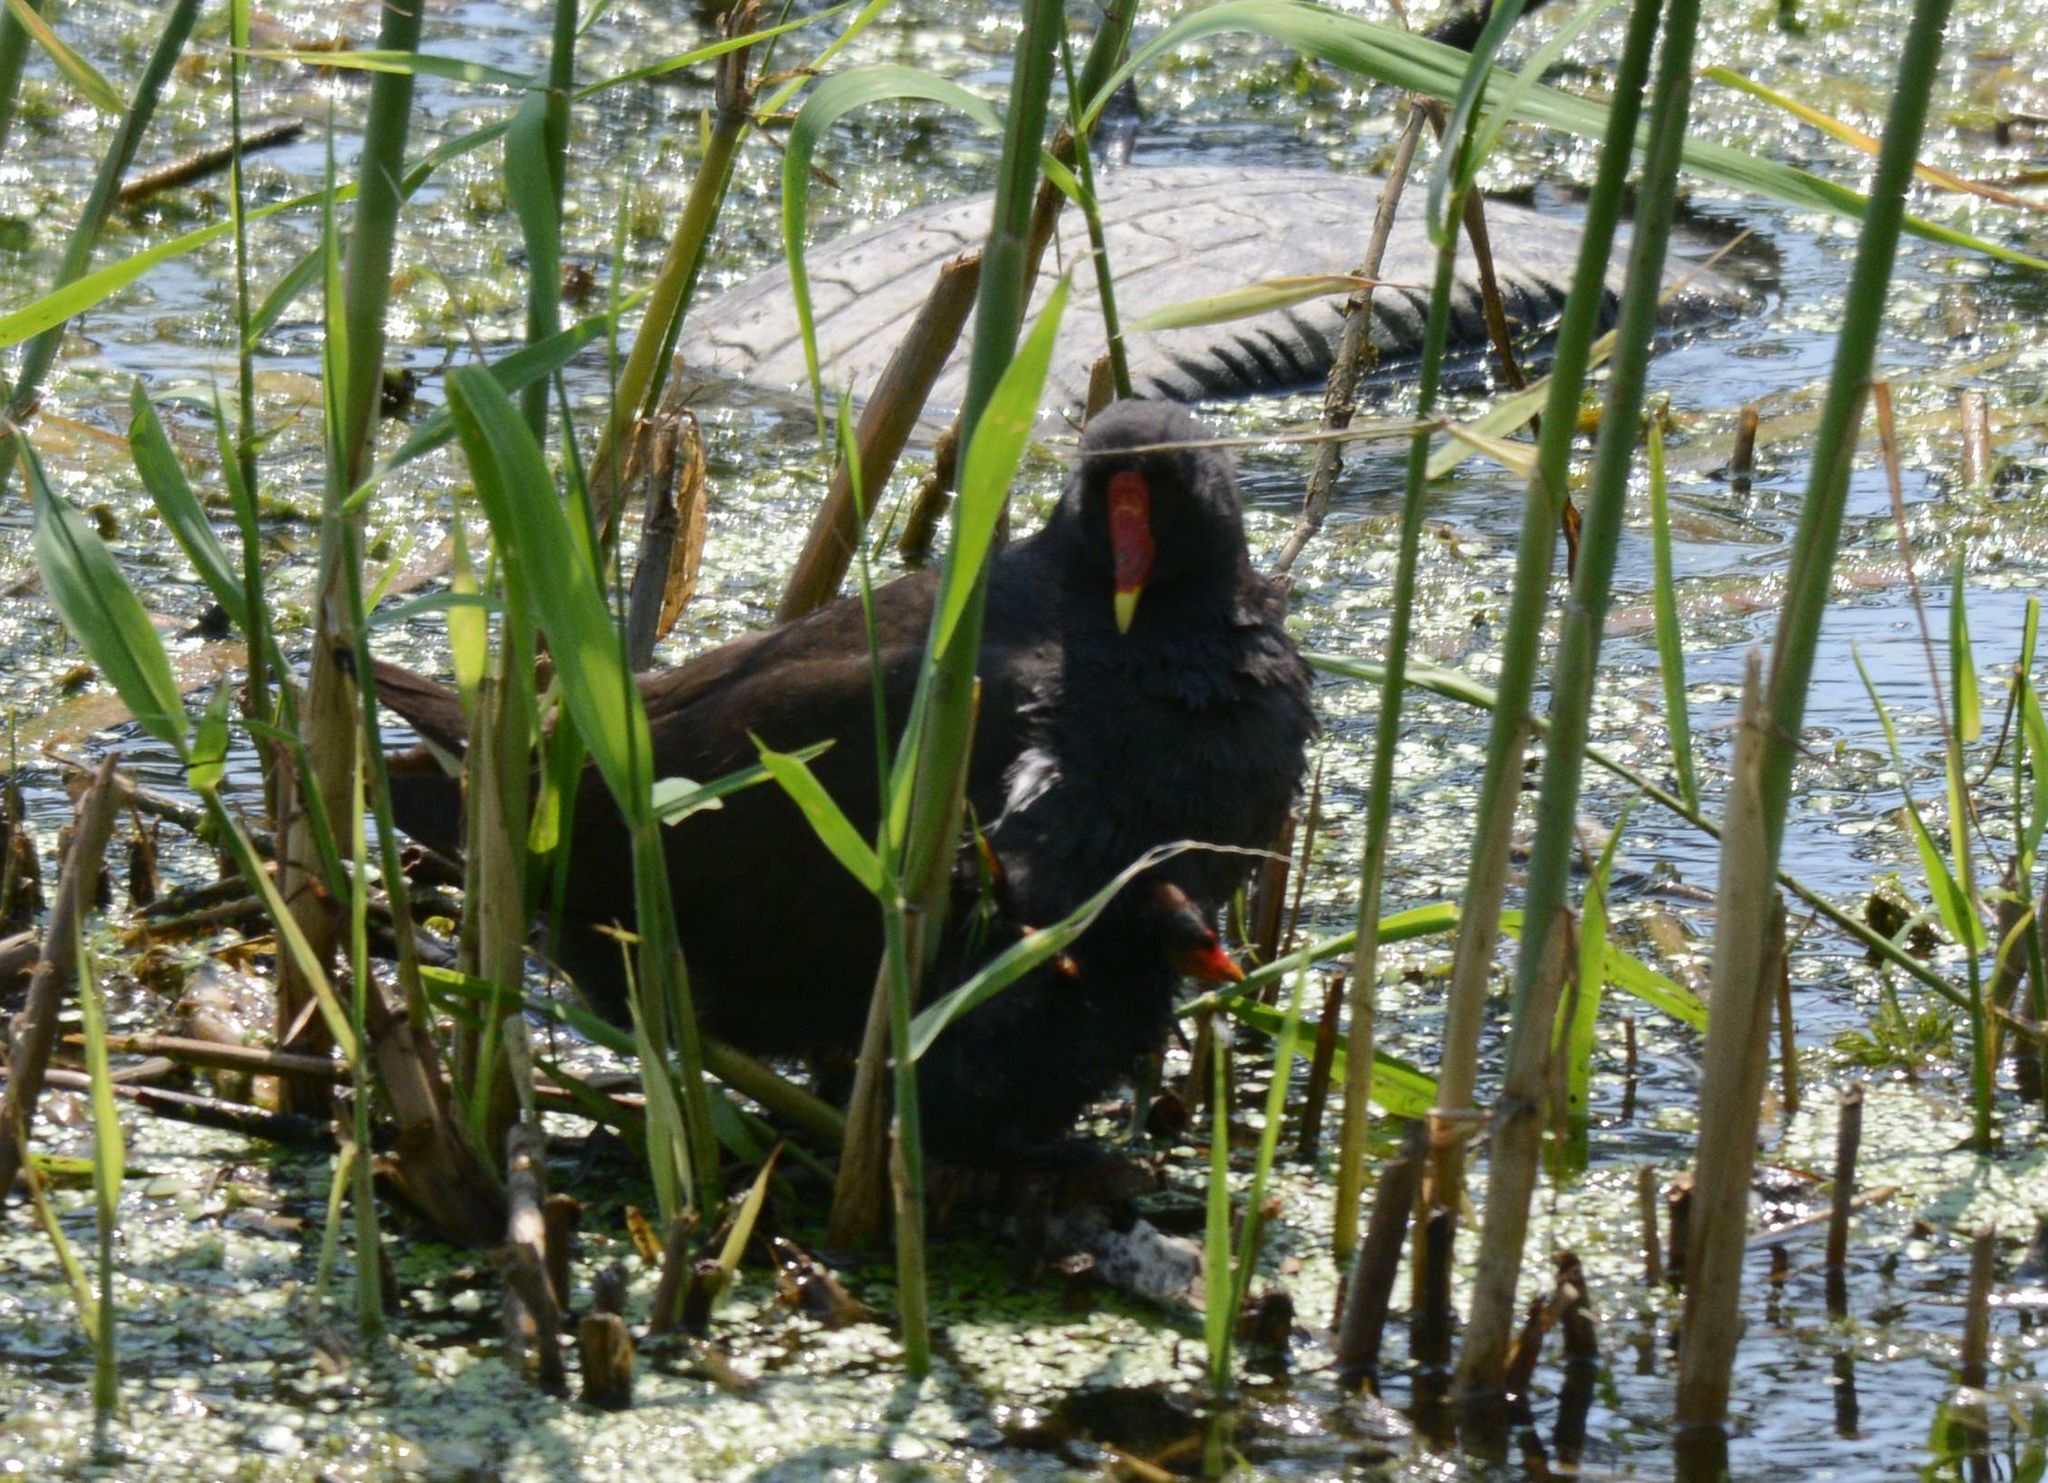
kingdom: Animalia
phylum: Chordata
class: Aves
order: Gruiformes
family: Rallidae
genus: Gallinula
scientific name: Gallinula chloropus
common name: Common moorhen
